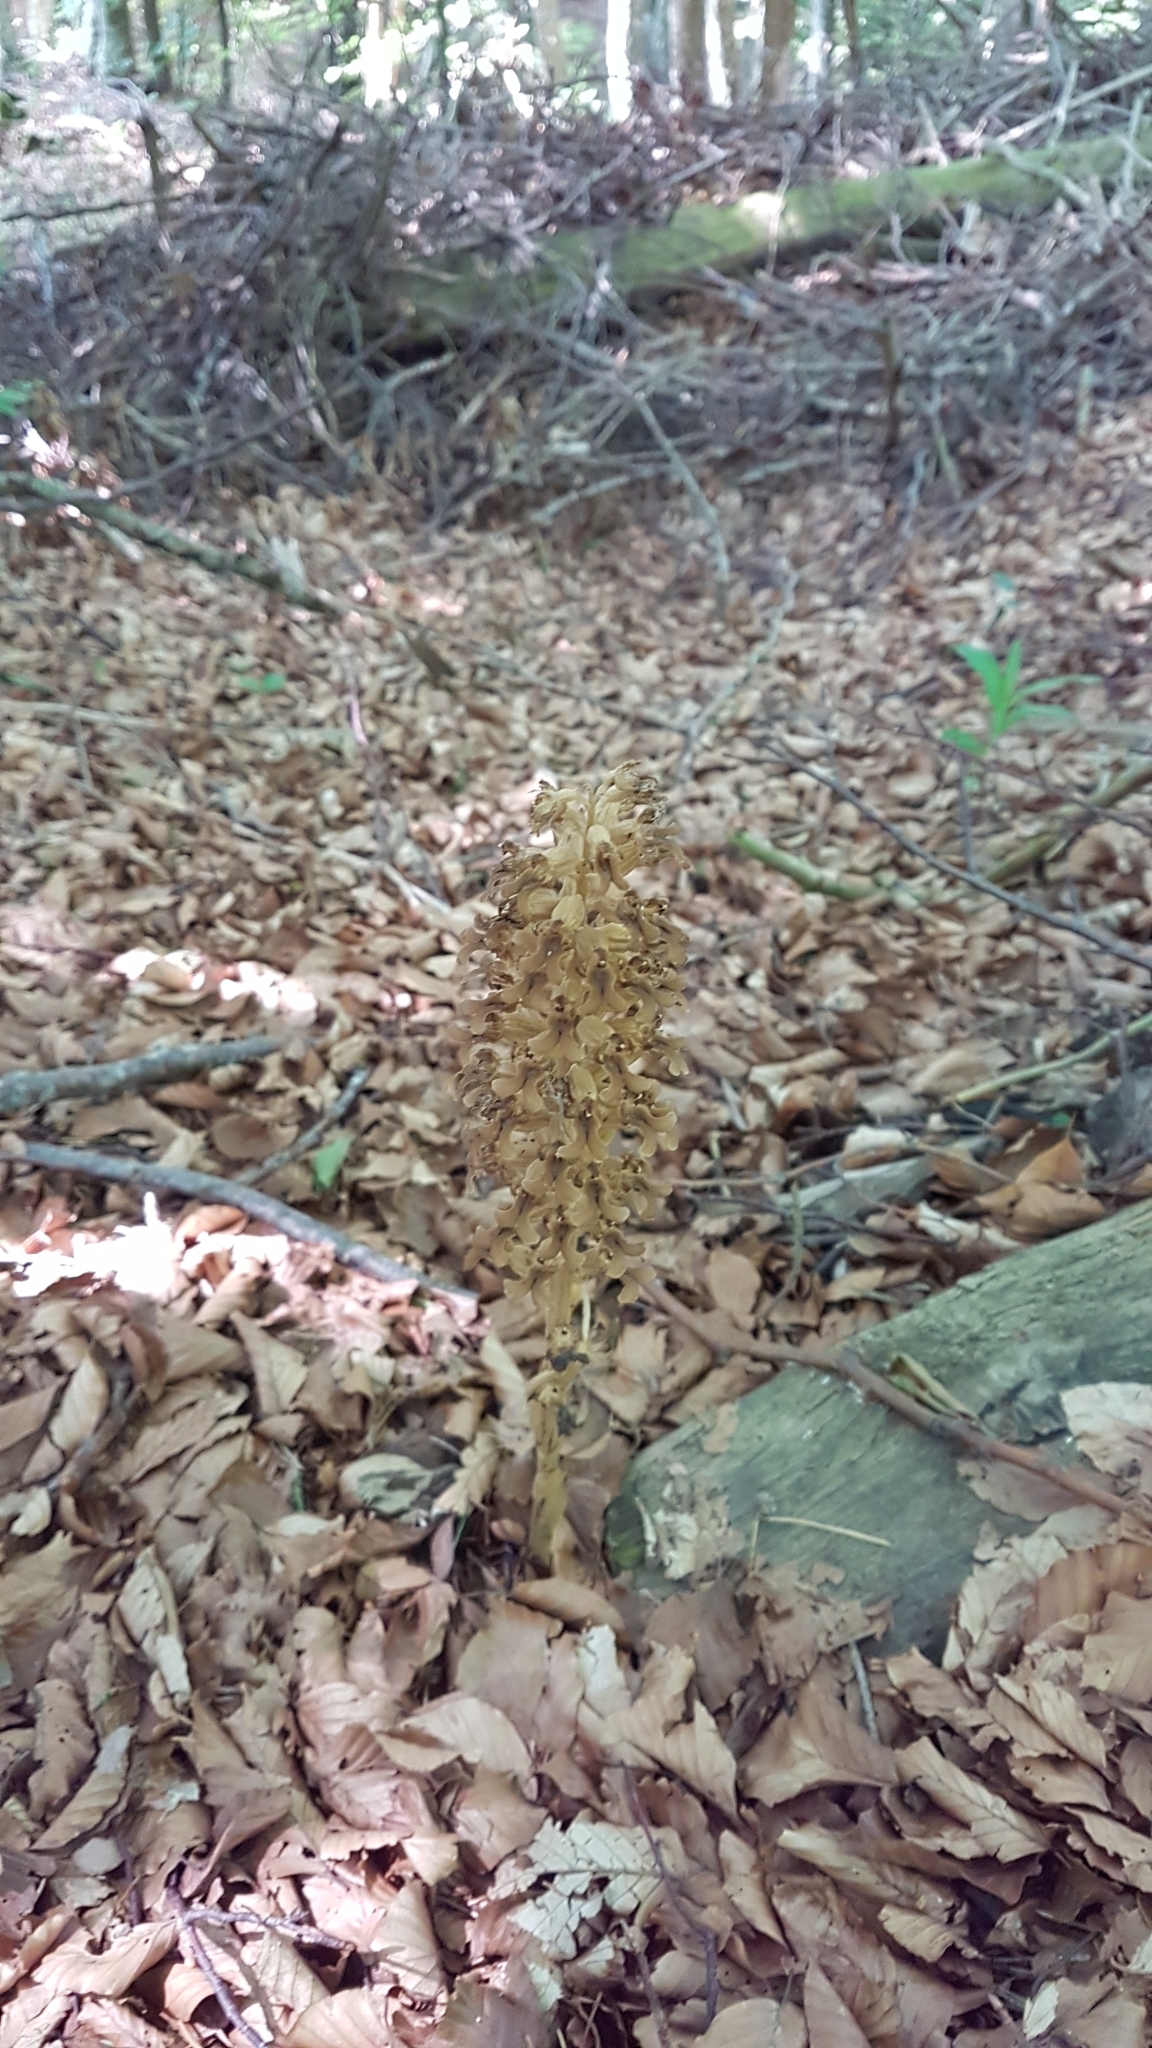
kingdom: Plantae
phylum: Tracheophyta
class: Liliopsida
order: Asparagales
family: Orchidaceae
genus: Neottia
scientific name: Neottia nidus-avis
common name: Bird's-nest orchid
